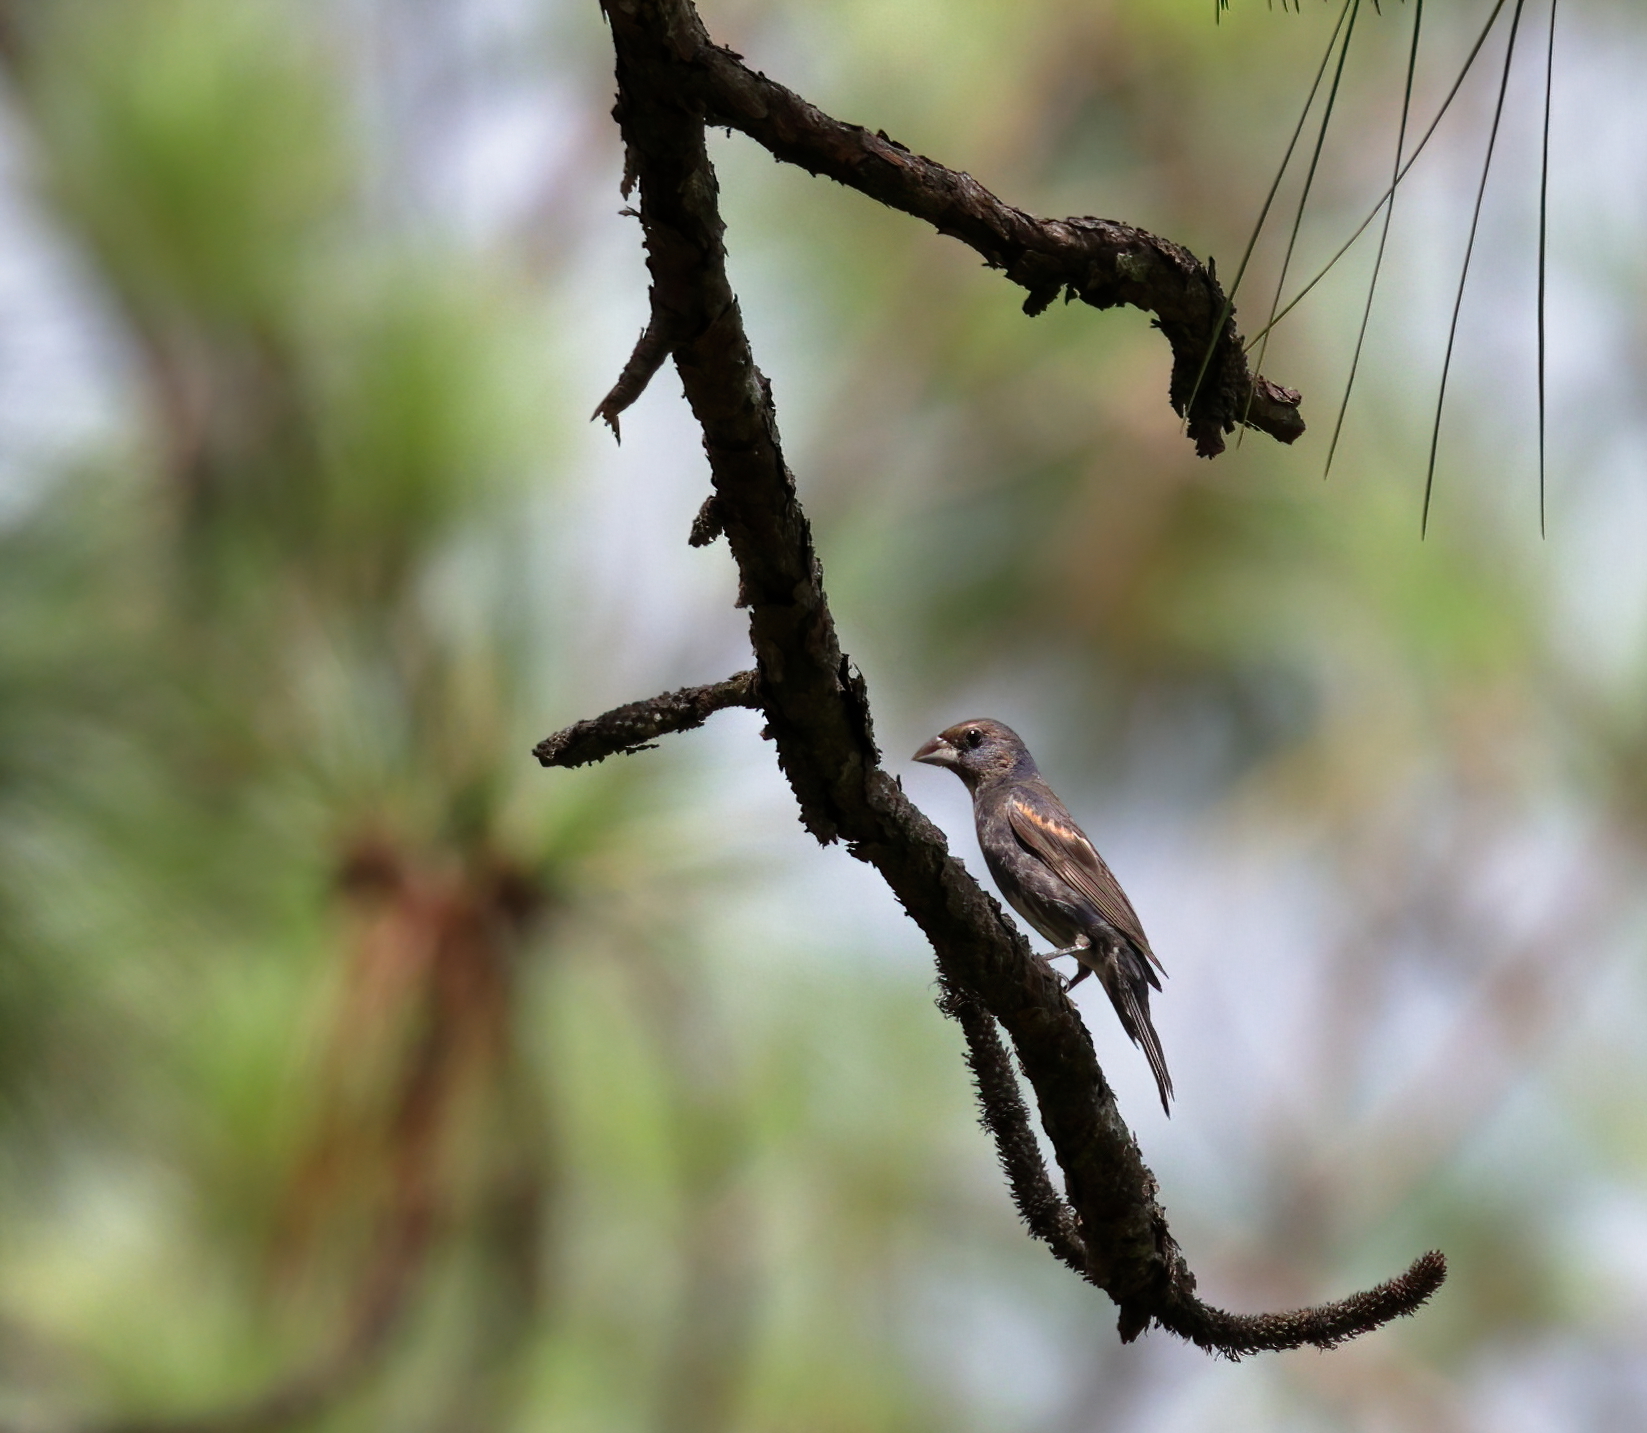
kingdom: Animalia
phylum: Chordata
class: Aves
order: Passeriformes
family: Cardinalidae
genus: Passerina
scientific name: Passerina caerulea
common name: Blue grosbeak
